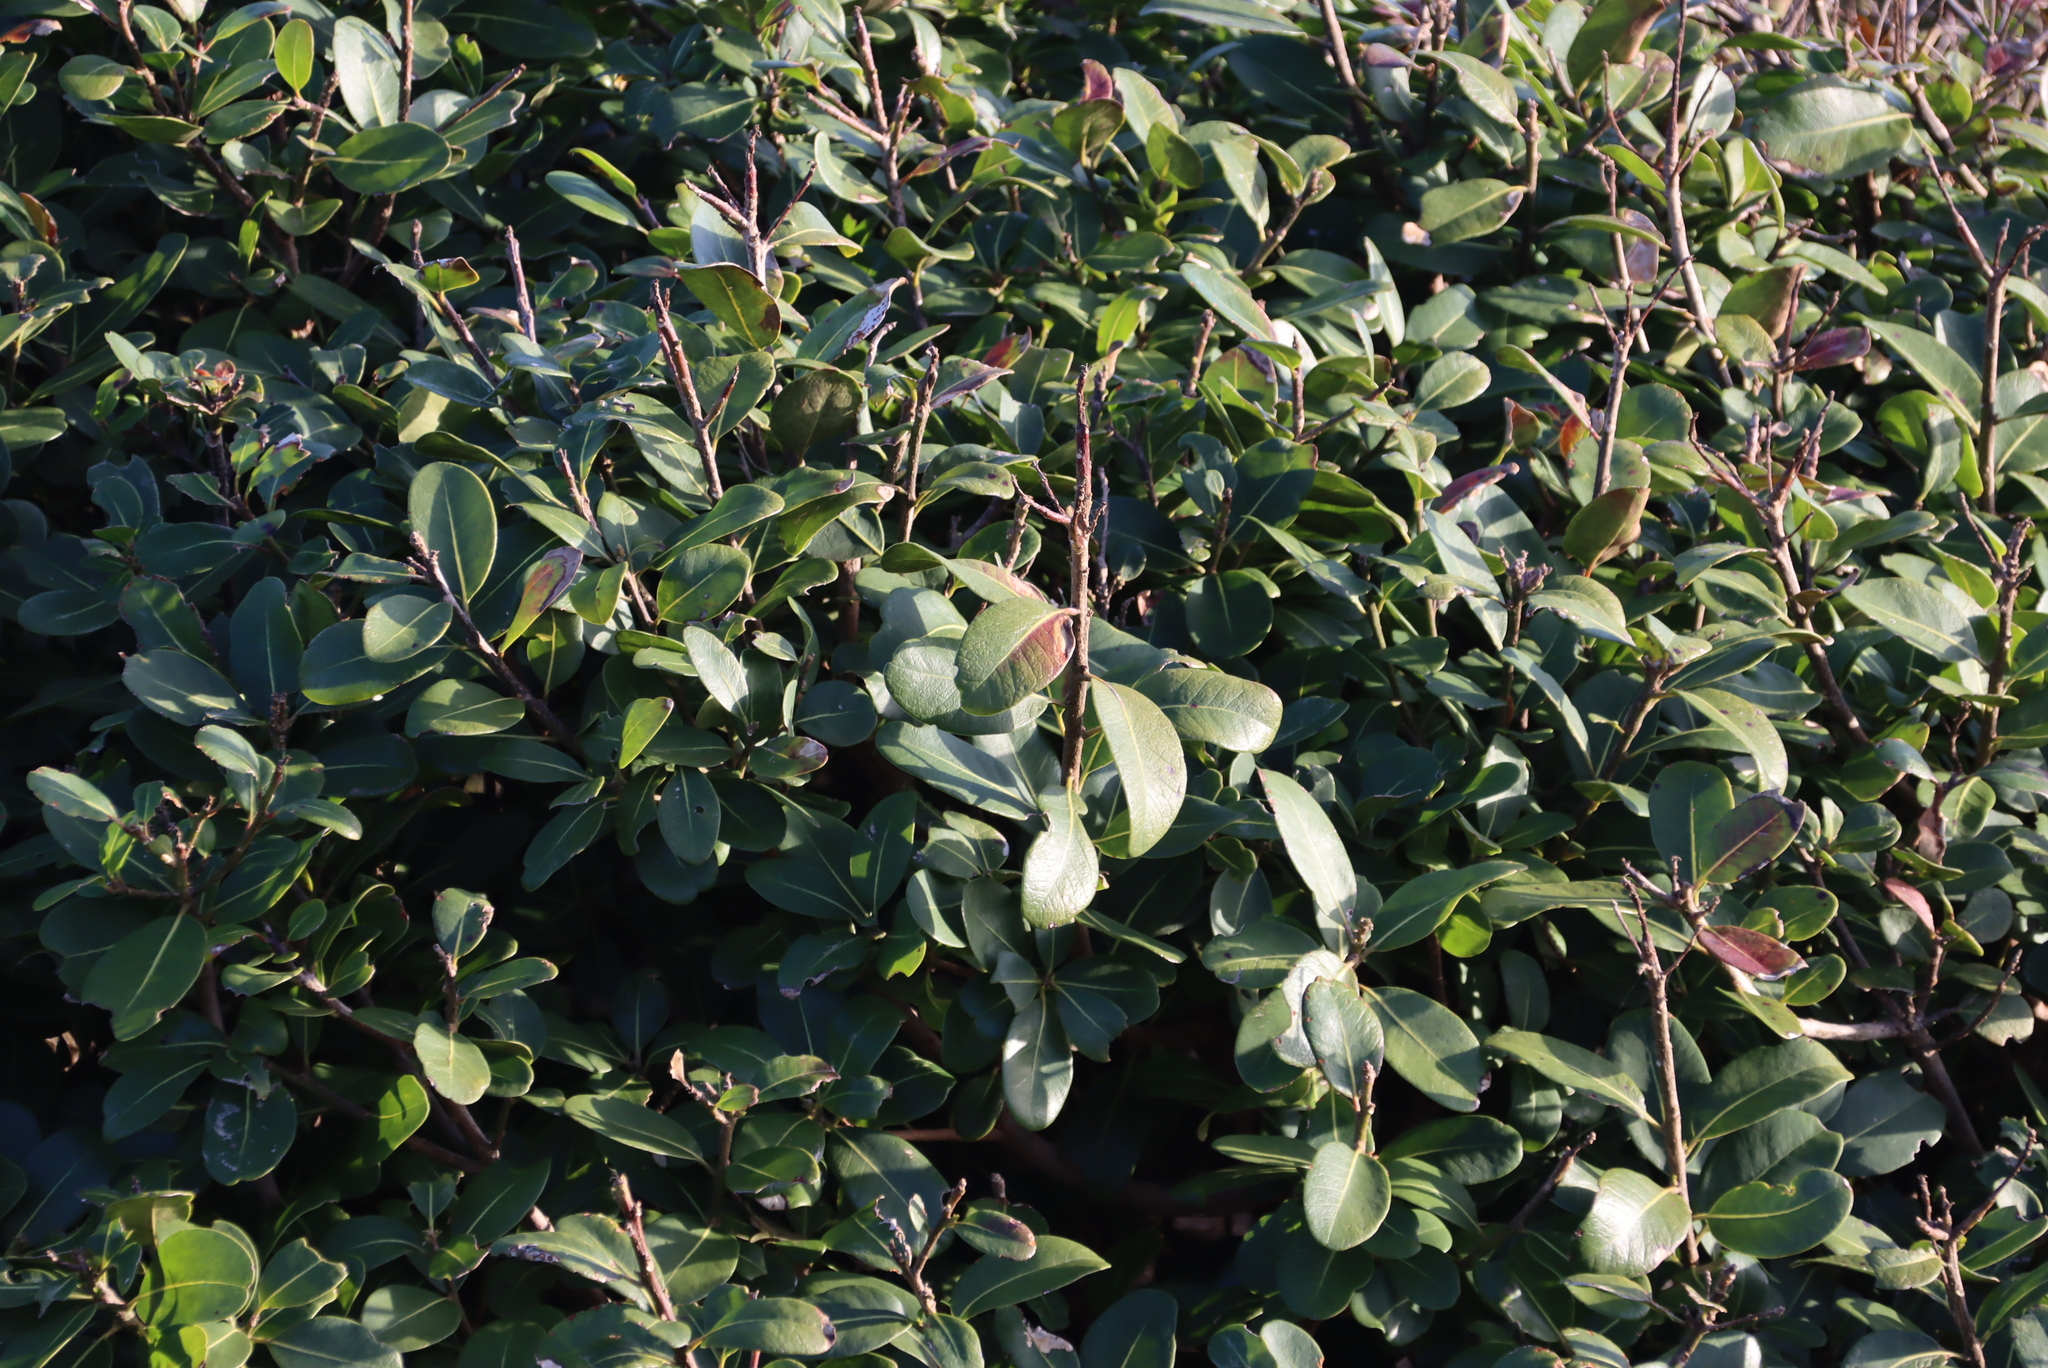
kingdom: Plantae
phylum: Tracheophyta
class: Magnoliopsida
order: Ericales
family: Sapotaceae
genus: Sideroxylon
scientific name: Sideroxylon inerme
